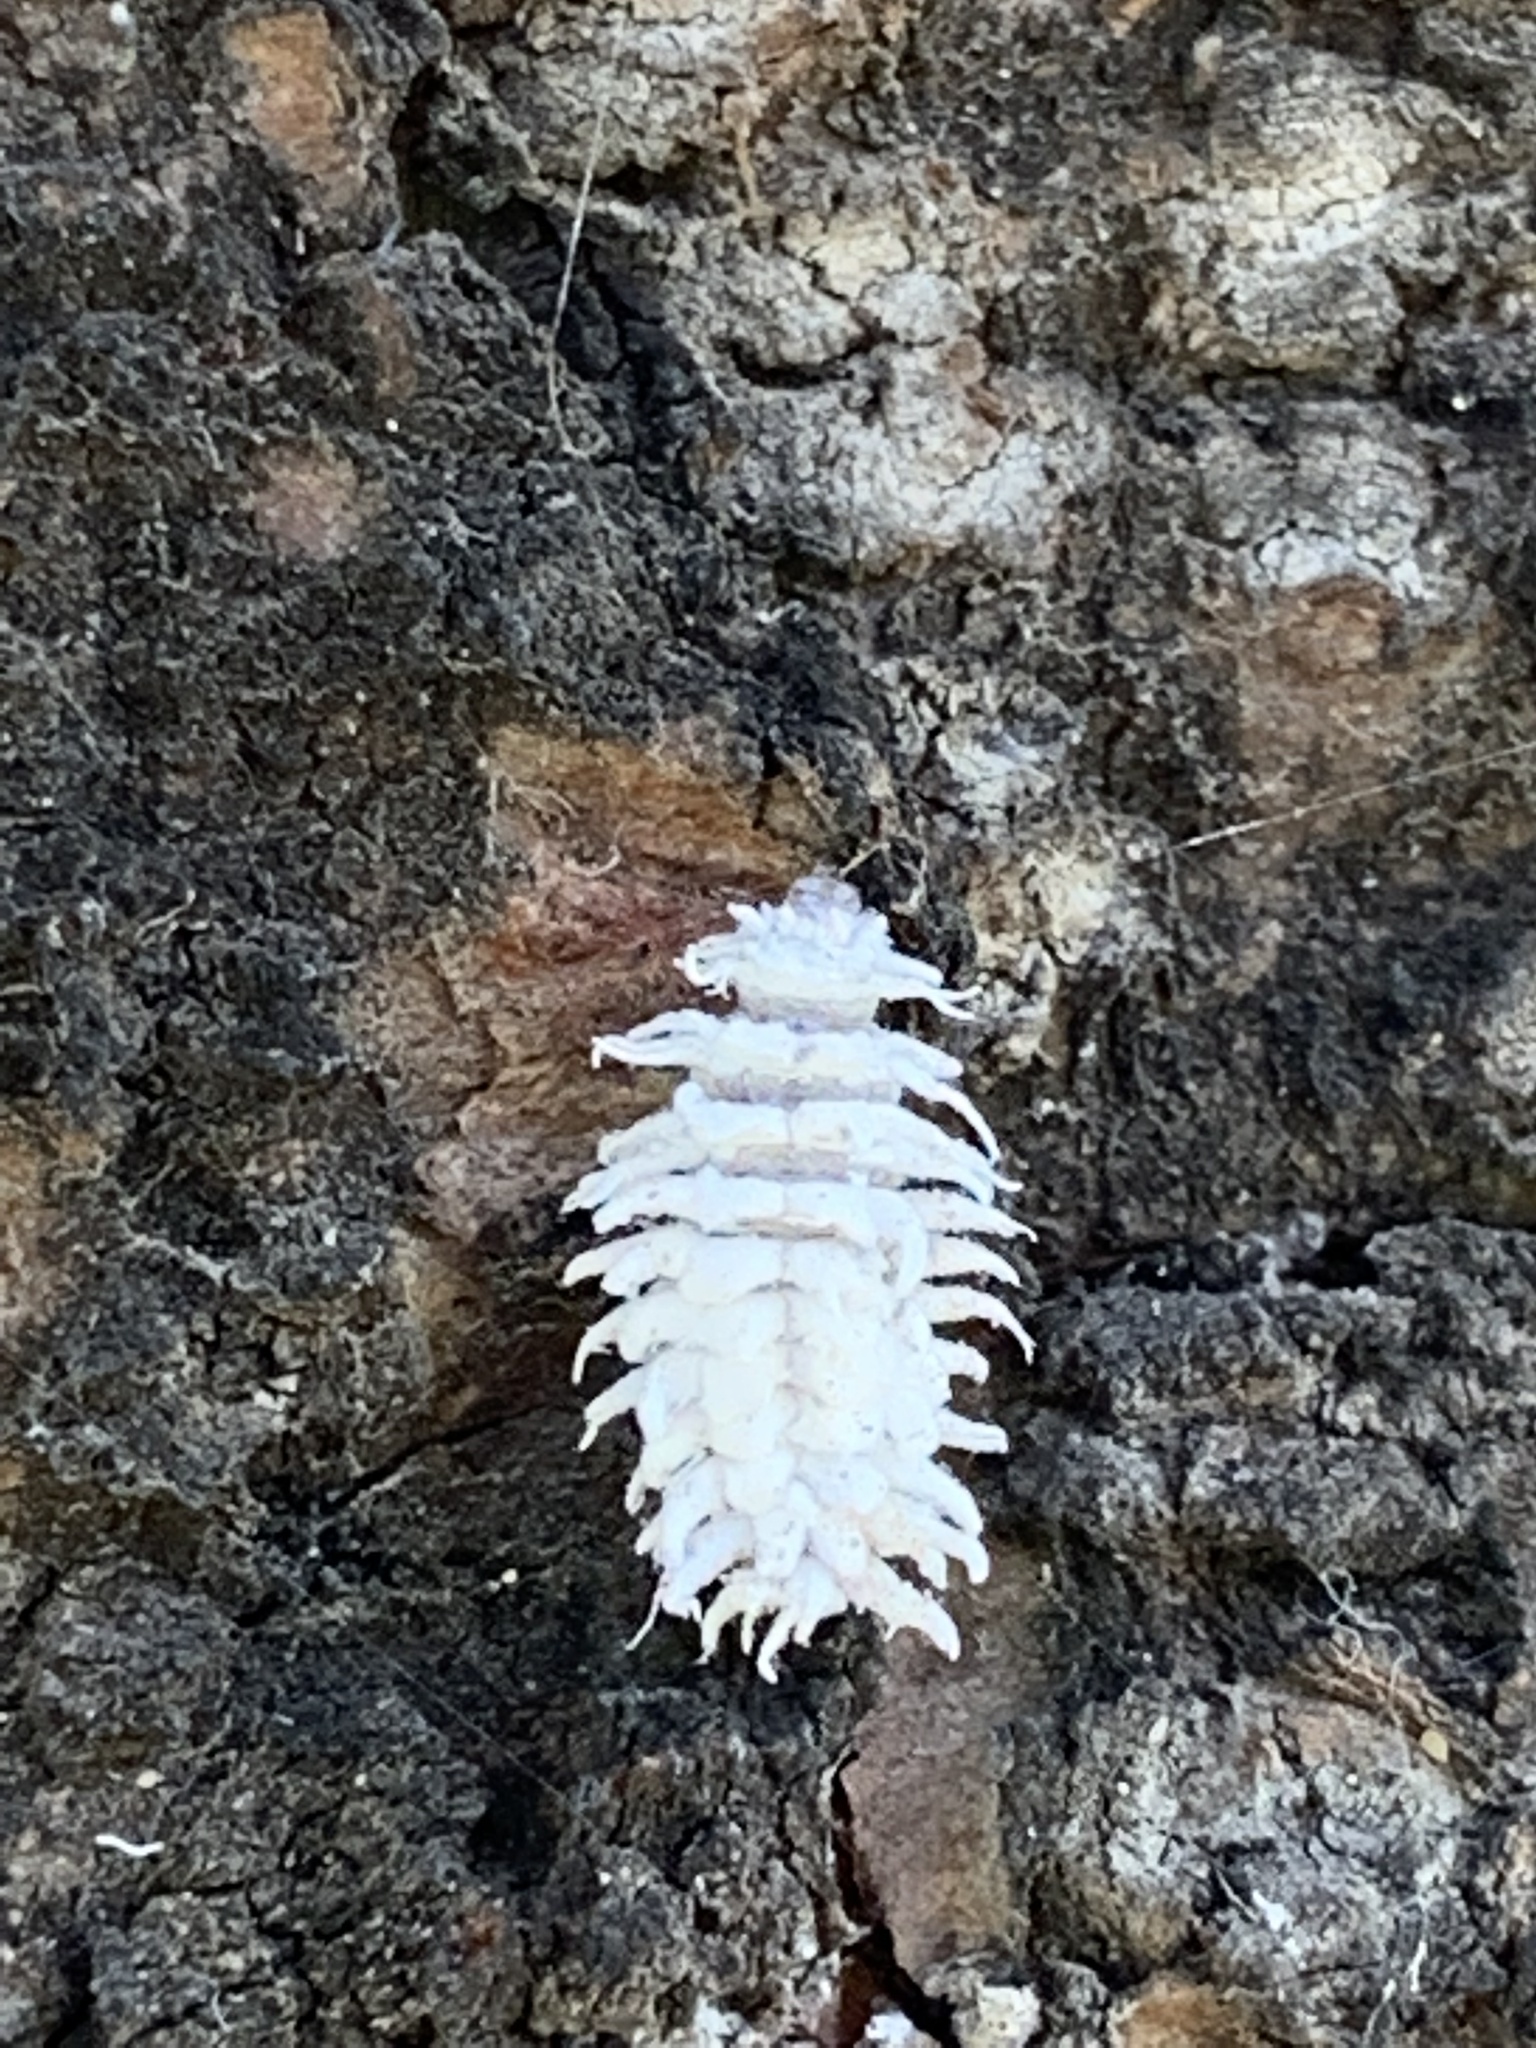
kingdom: Animalia
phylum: Arthropoda
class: Insecta
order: Coleoptera
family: Coccinellidae
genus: Cryptolaemus
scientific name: Cryptolaemus montrouzieri
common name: Mealybug destroyer
